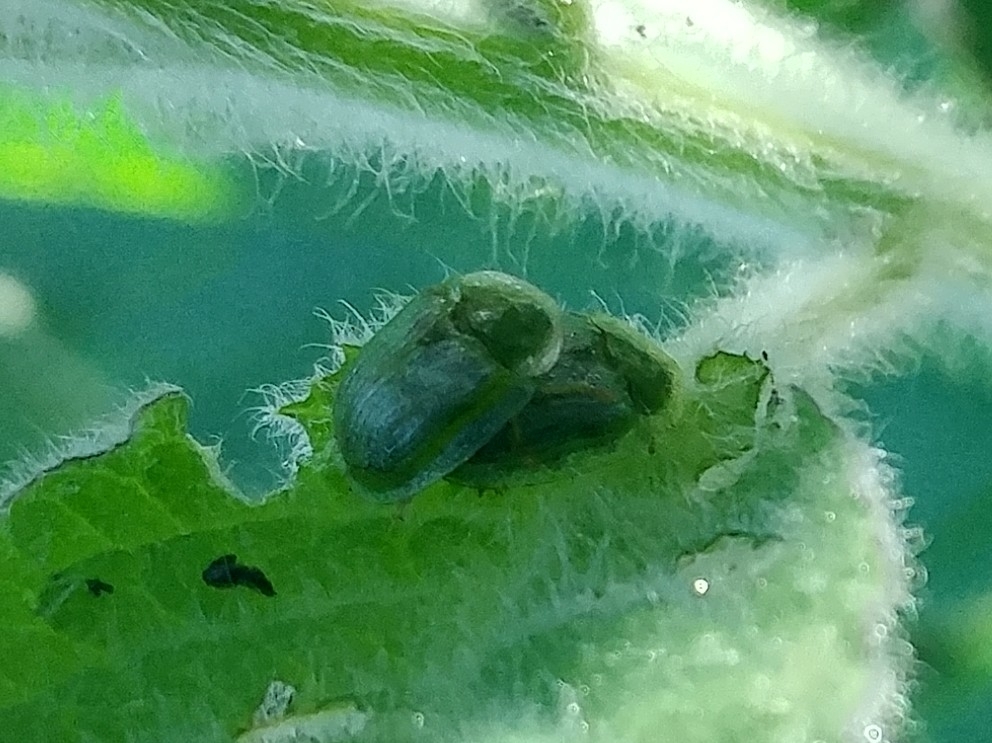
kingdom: Animalia
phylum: Arthropoda
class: Insecta
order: Coleoptera
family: Chrysomelidae
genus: Gratiana
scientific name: Gratiana pallidula
